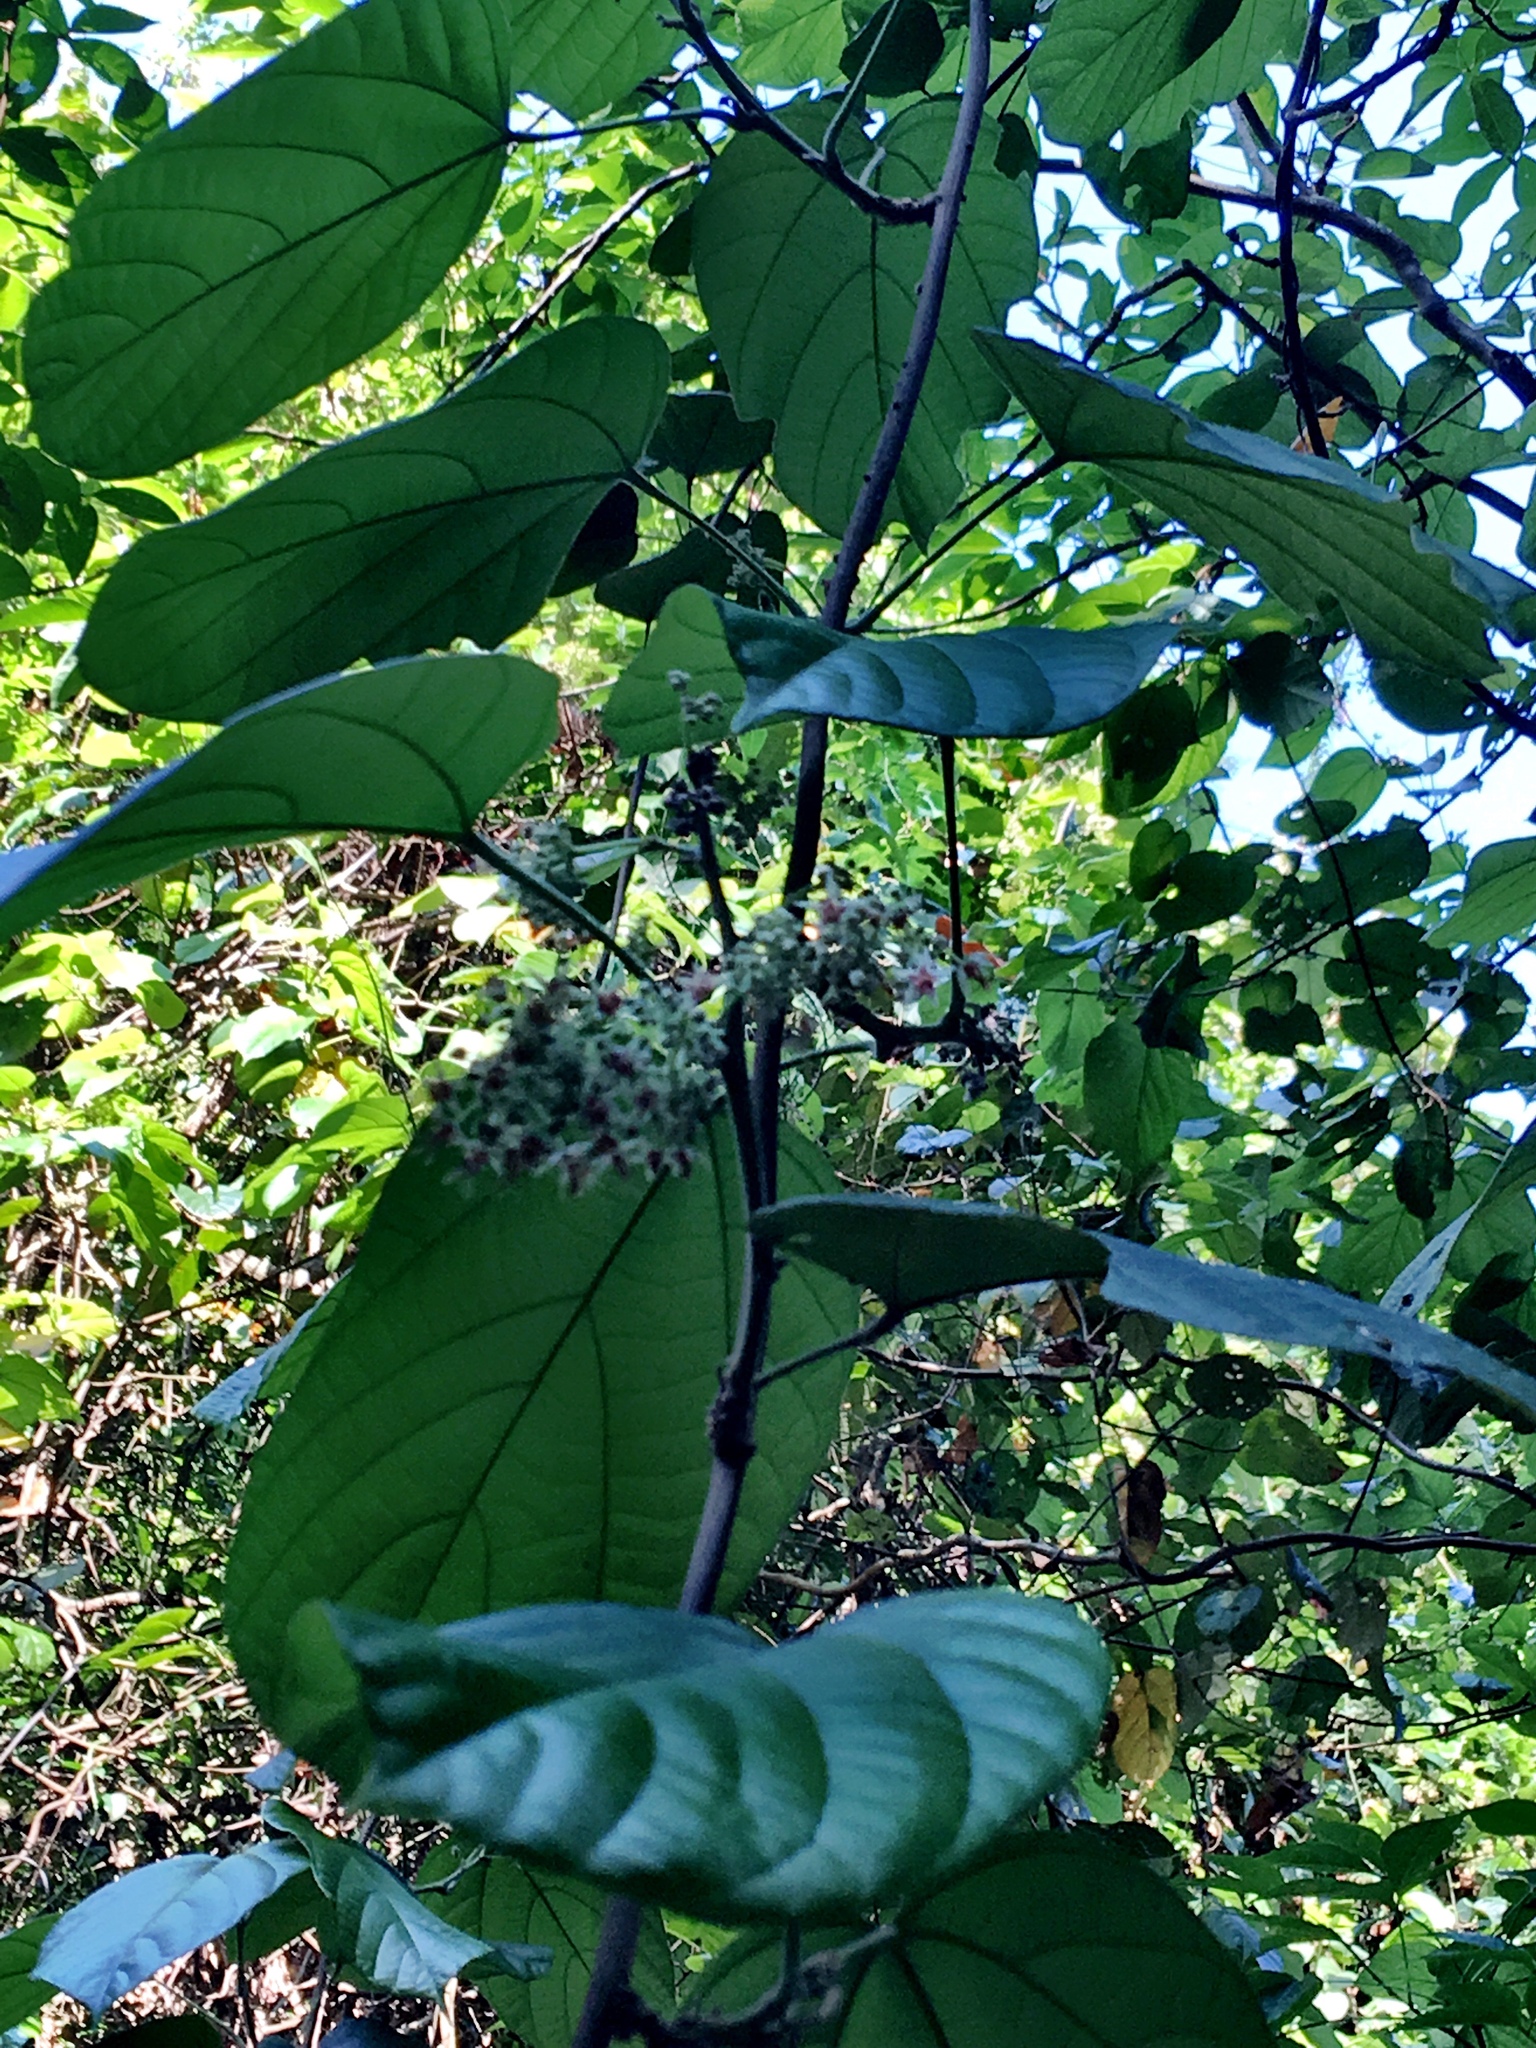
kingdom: Plantae
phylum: Tracheophyta
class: Magnoliopsida
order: Malvales
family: Malvaceae
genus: Byttneria
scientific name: Byttneria grandifolia
